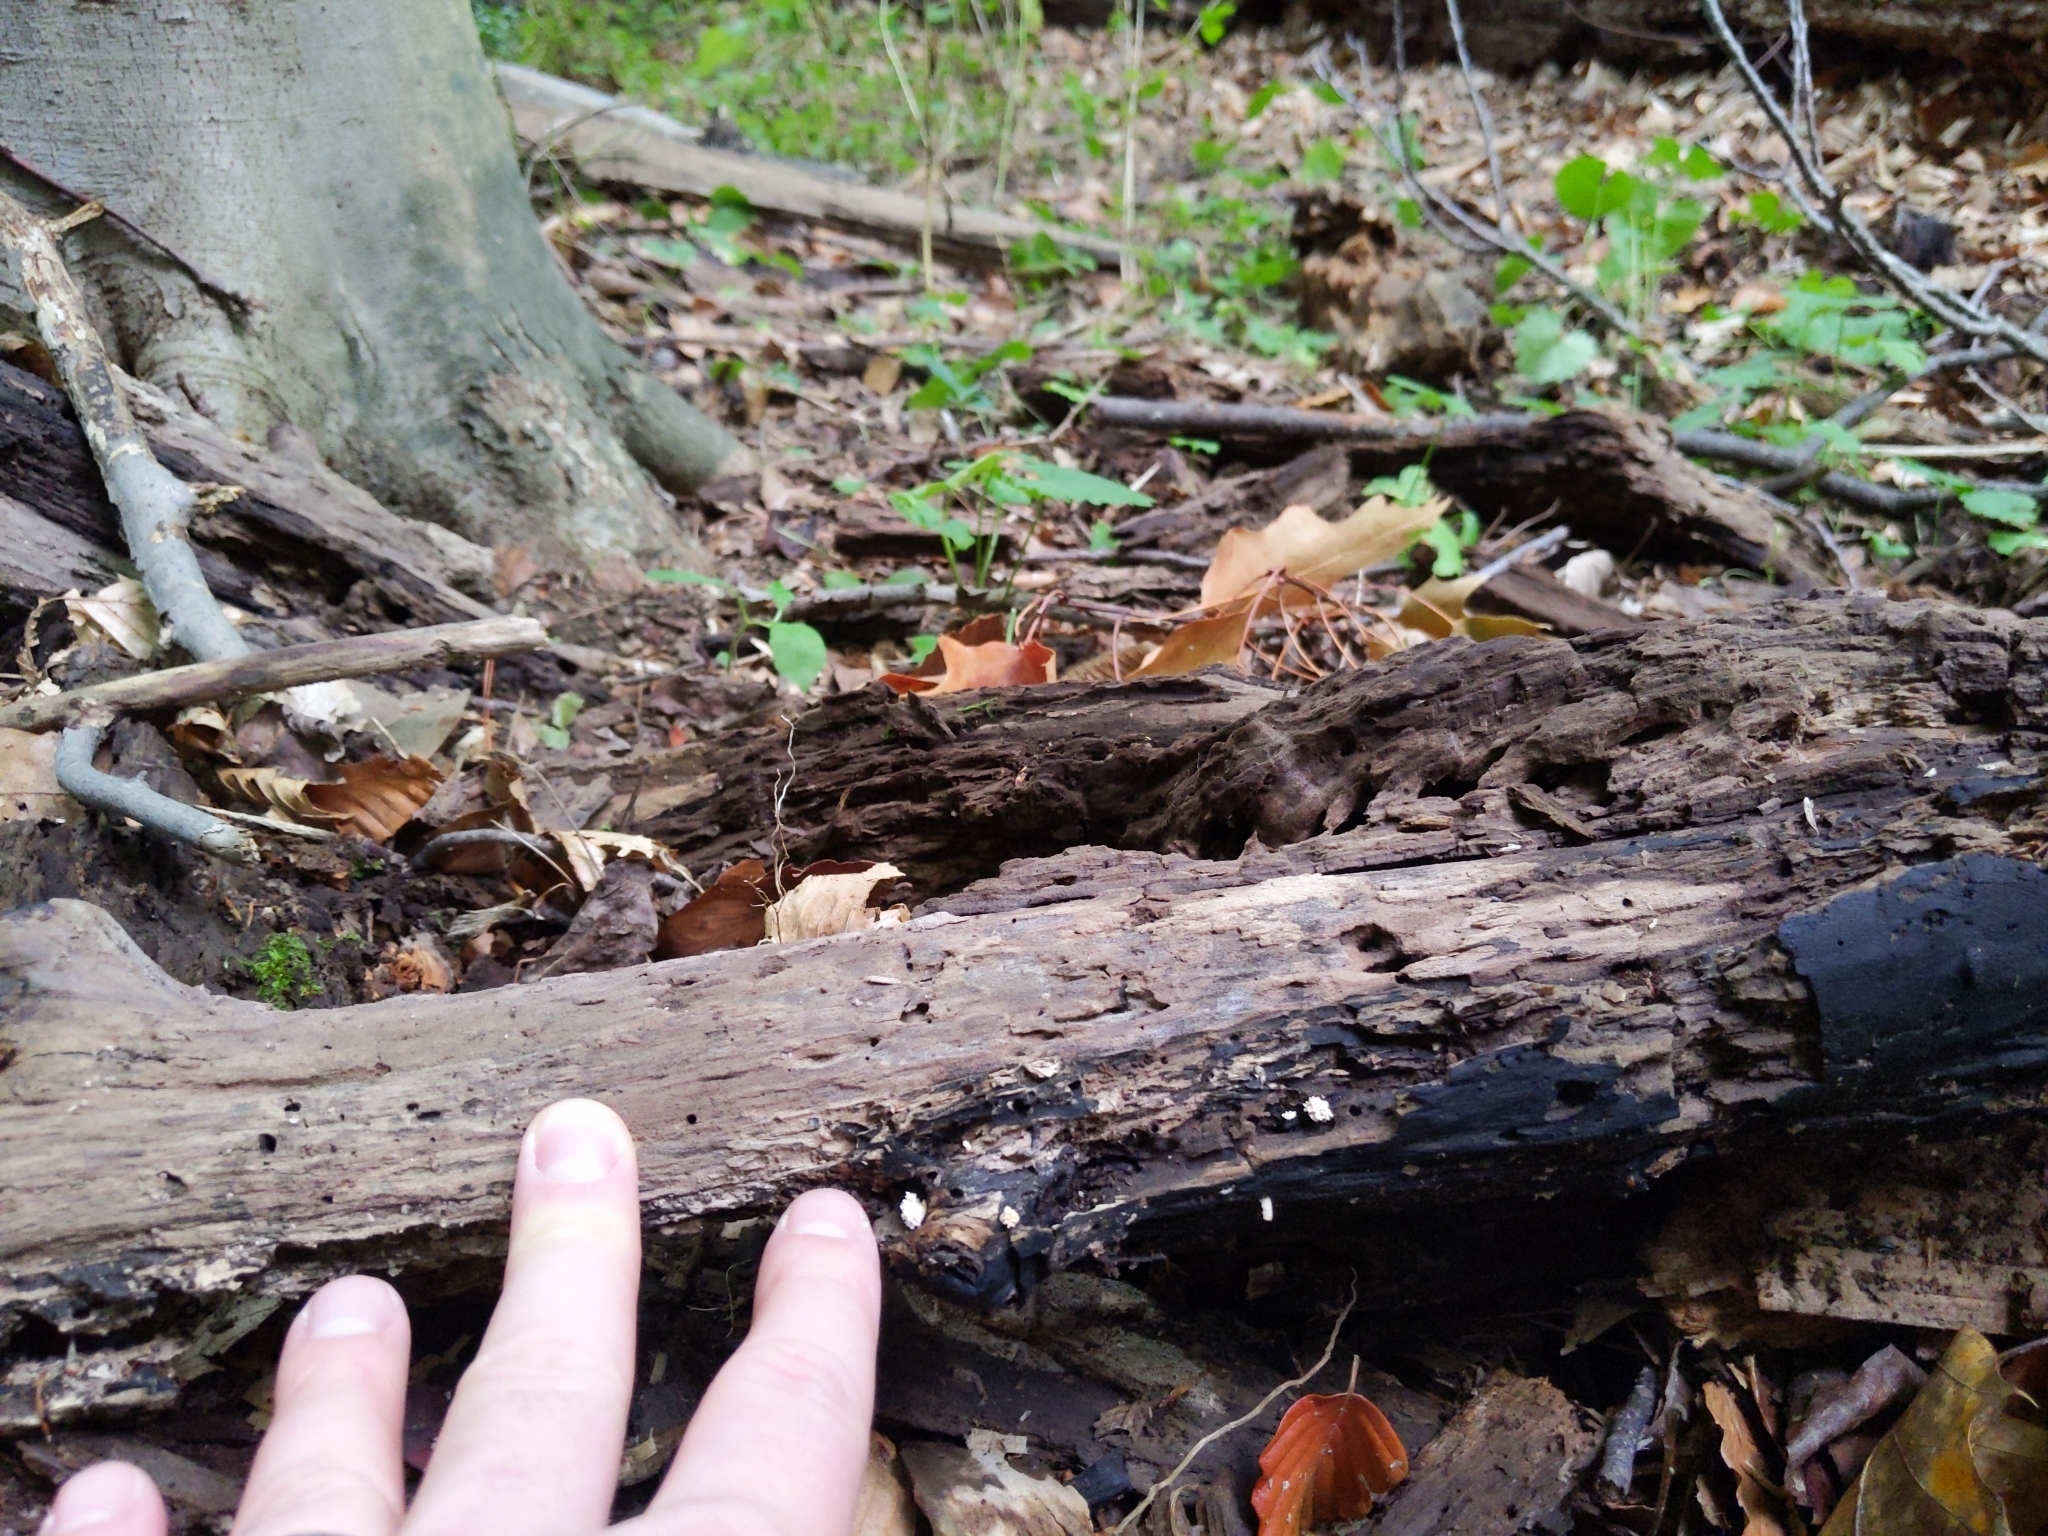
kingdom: Fungi
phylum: Ascomycota
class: Sordariomycetes
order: Xylariales
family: Xylariaceae
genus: Xylaria
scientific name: Xylaria cubensis
